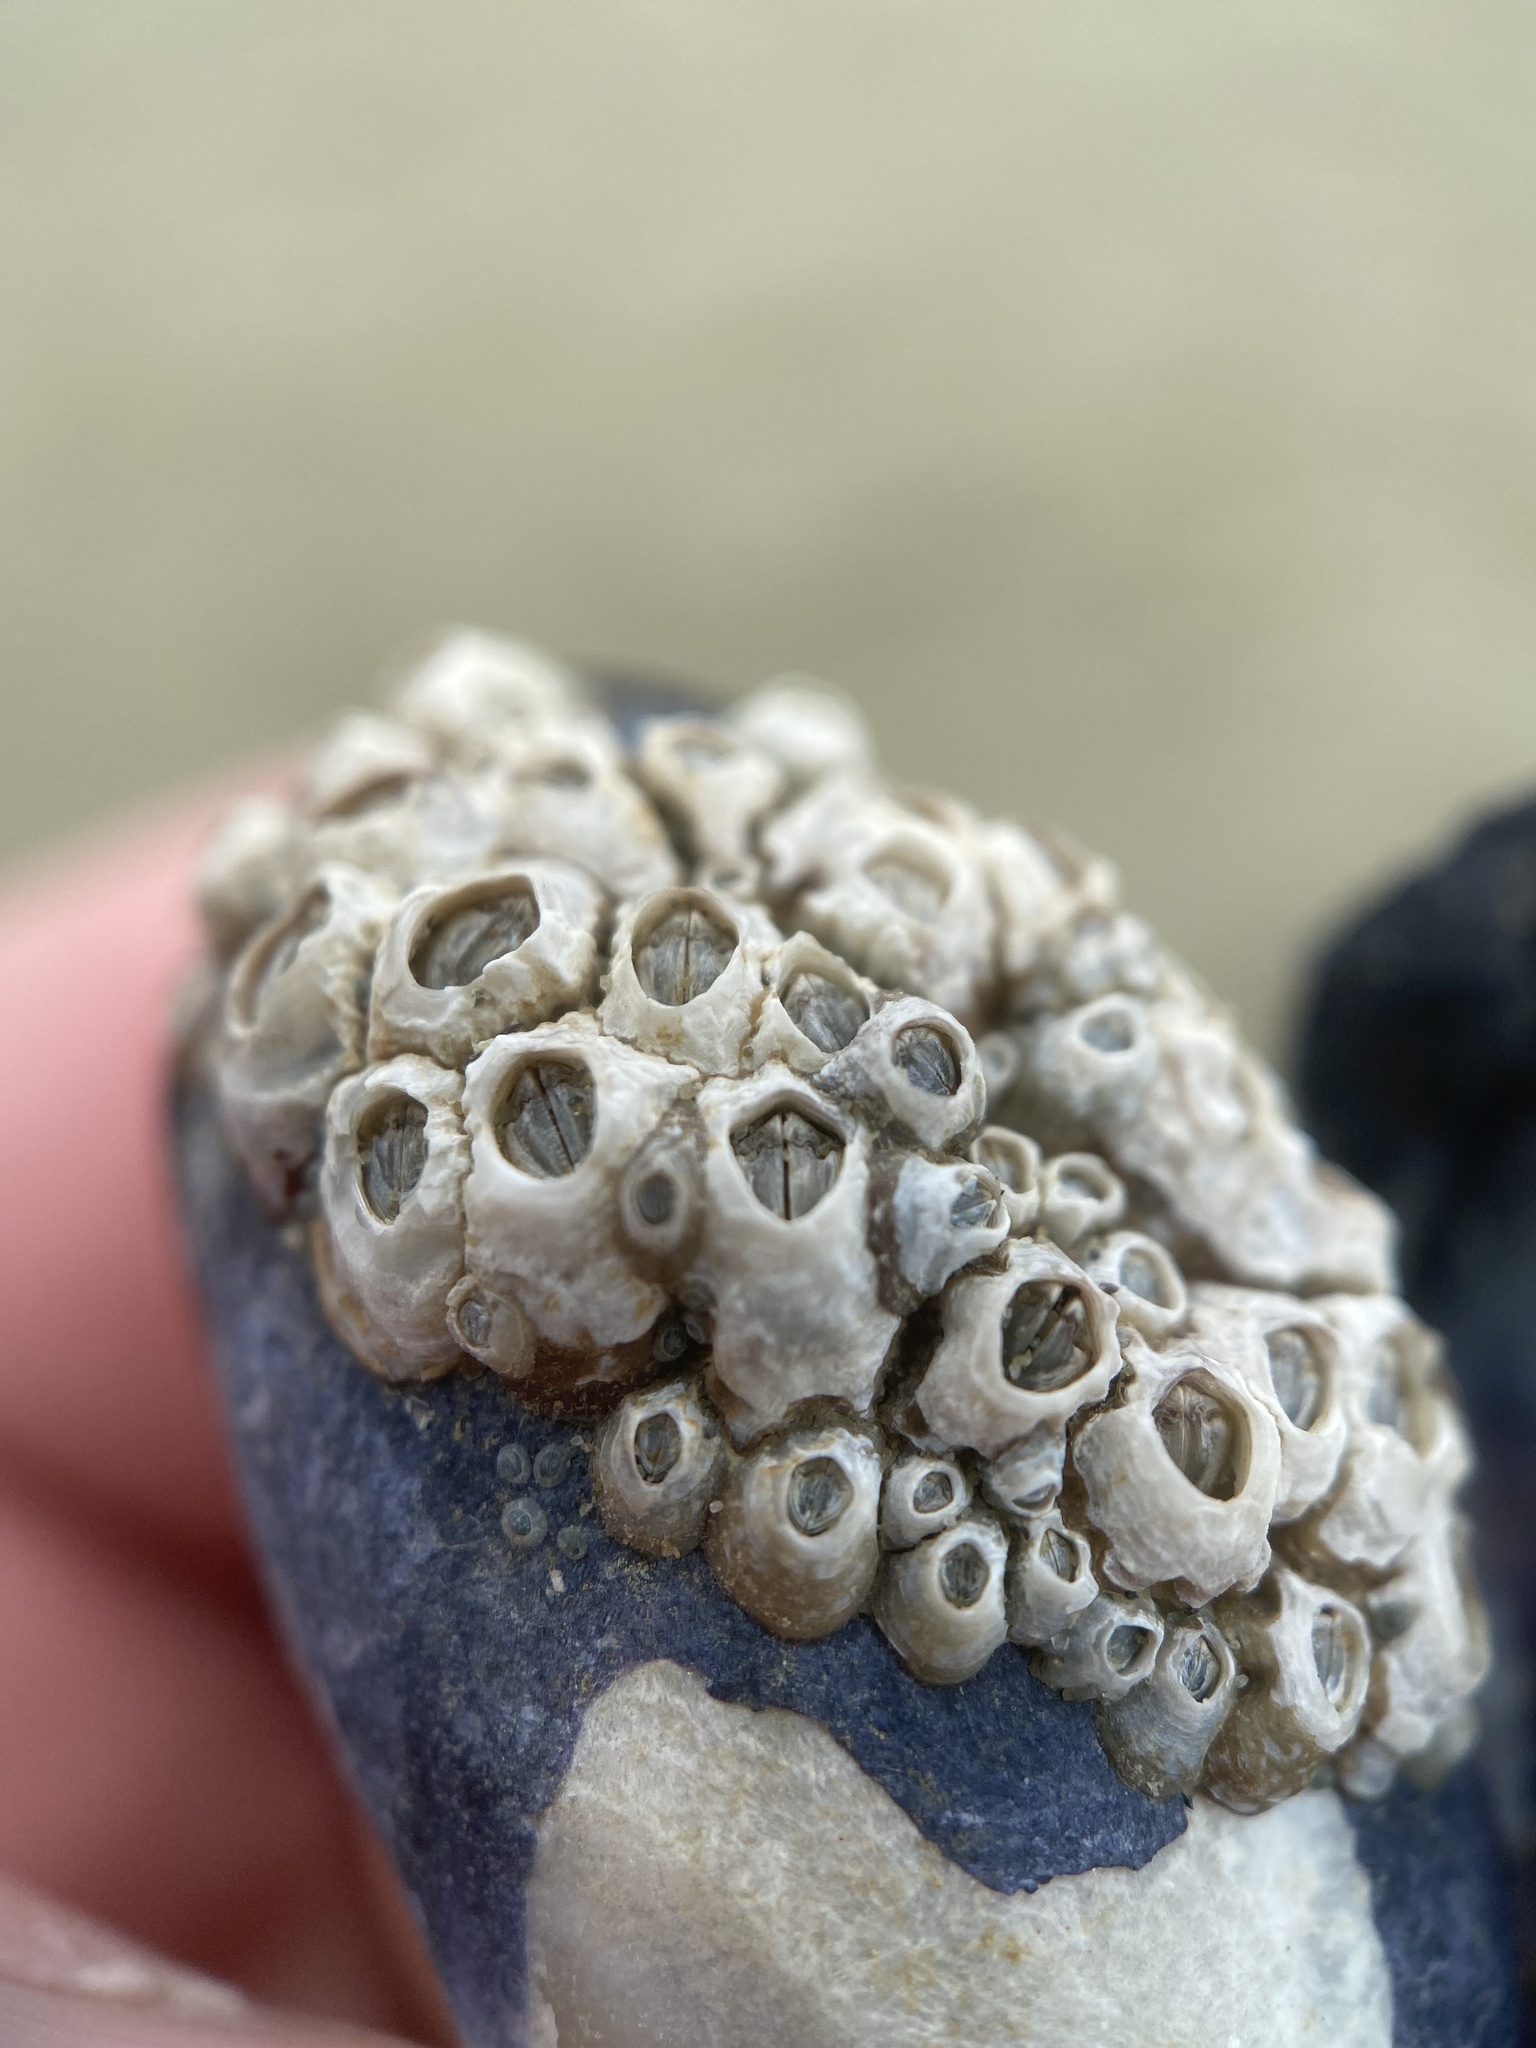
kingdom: Animalia
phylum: Arthropoda
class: Maxillopoda
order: Sessilia
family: Chthamalidae
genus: Chamaesipho
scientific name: Chamaesipho columna
